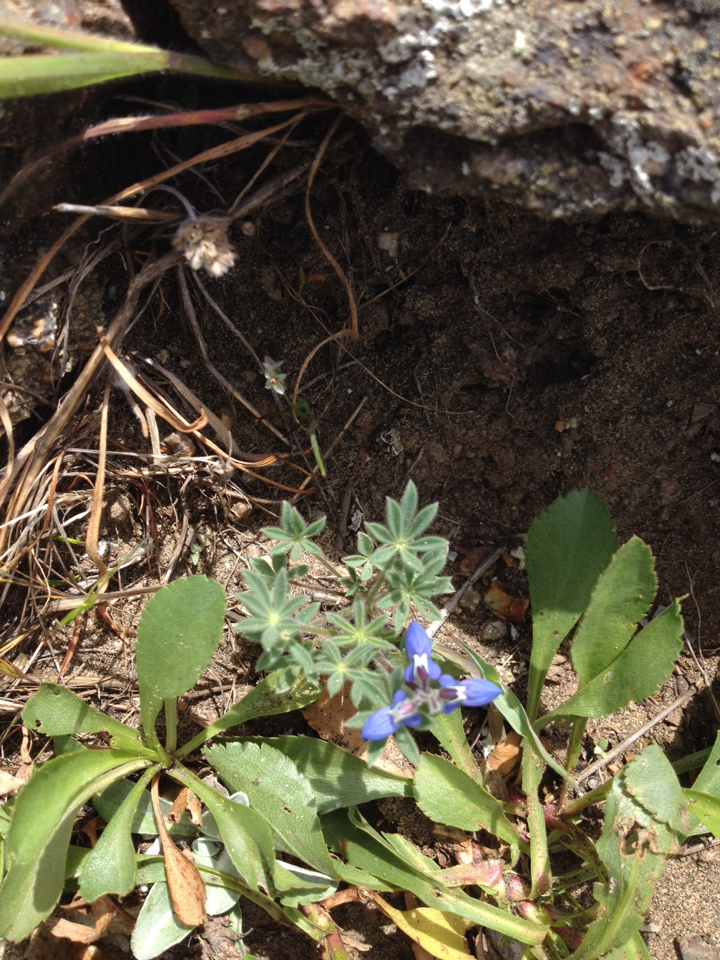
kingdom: Plantae
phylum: Tracheophyta
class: Magnoliopsida
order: Fabales
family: Fabaceae
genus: Lupinus
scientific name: Lupinus bicolor
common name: Miniature lupine
